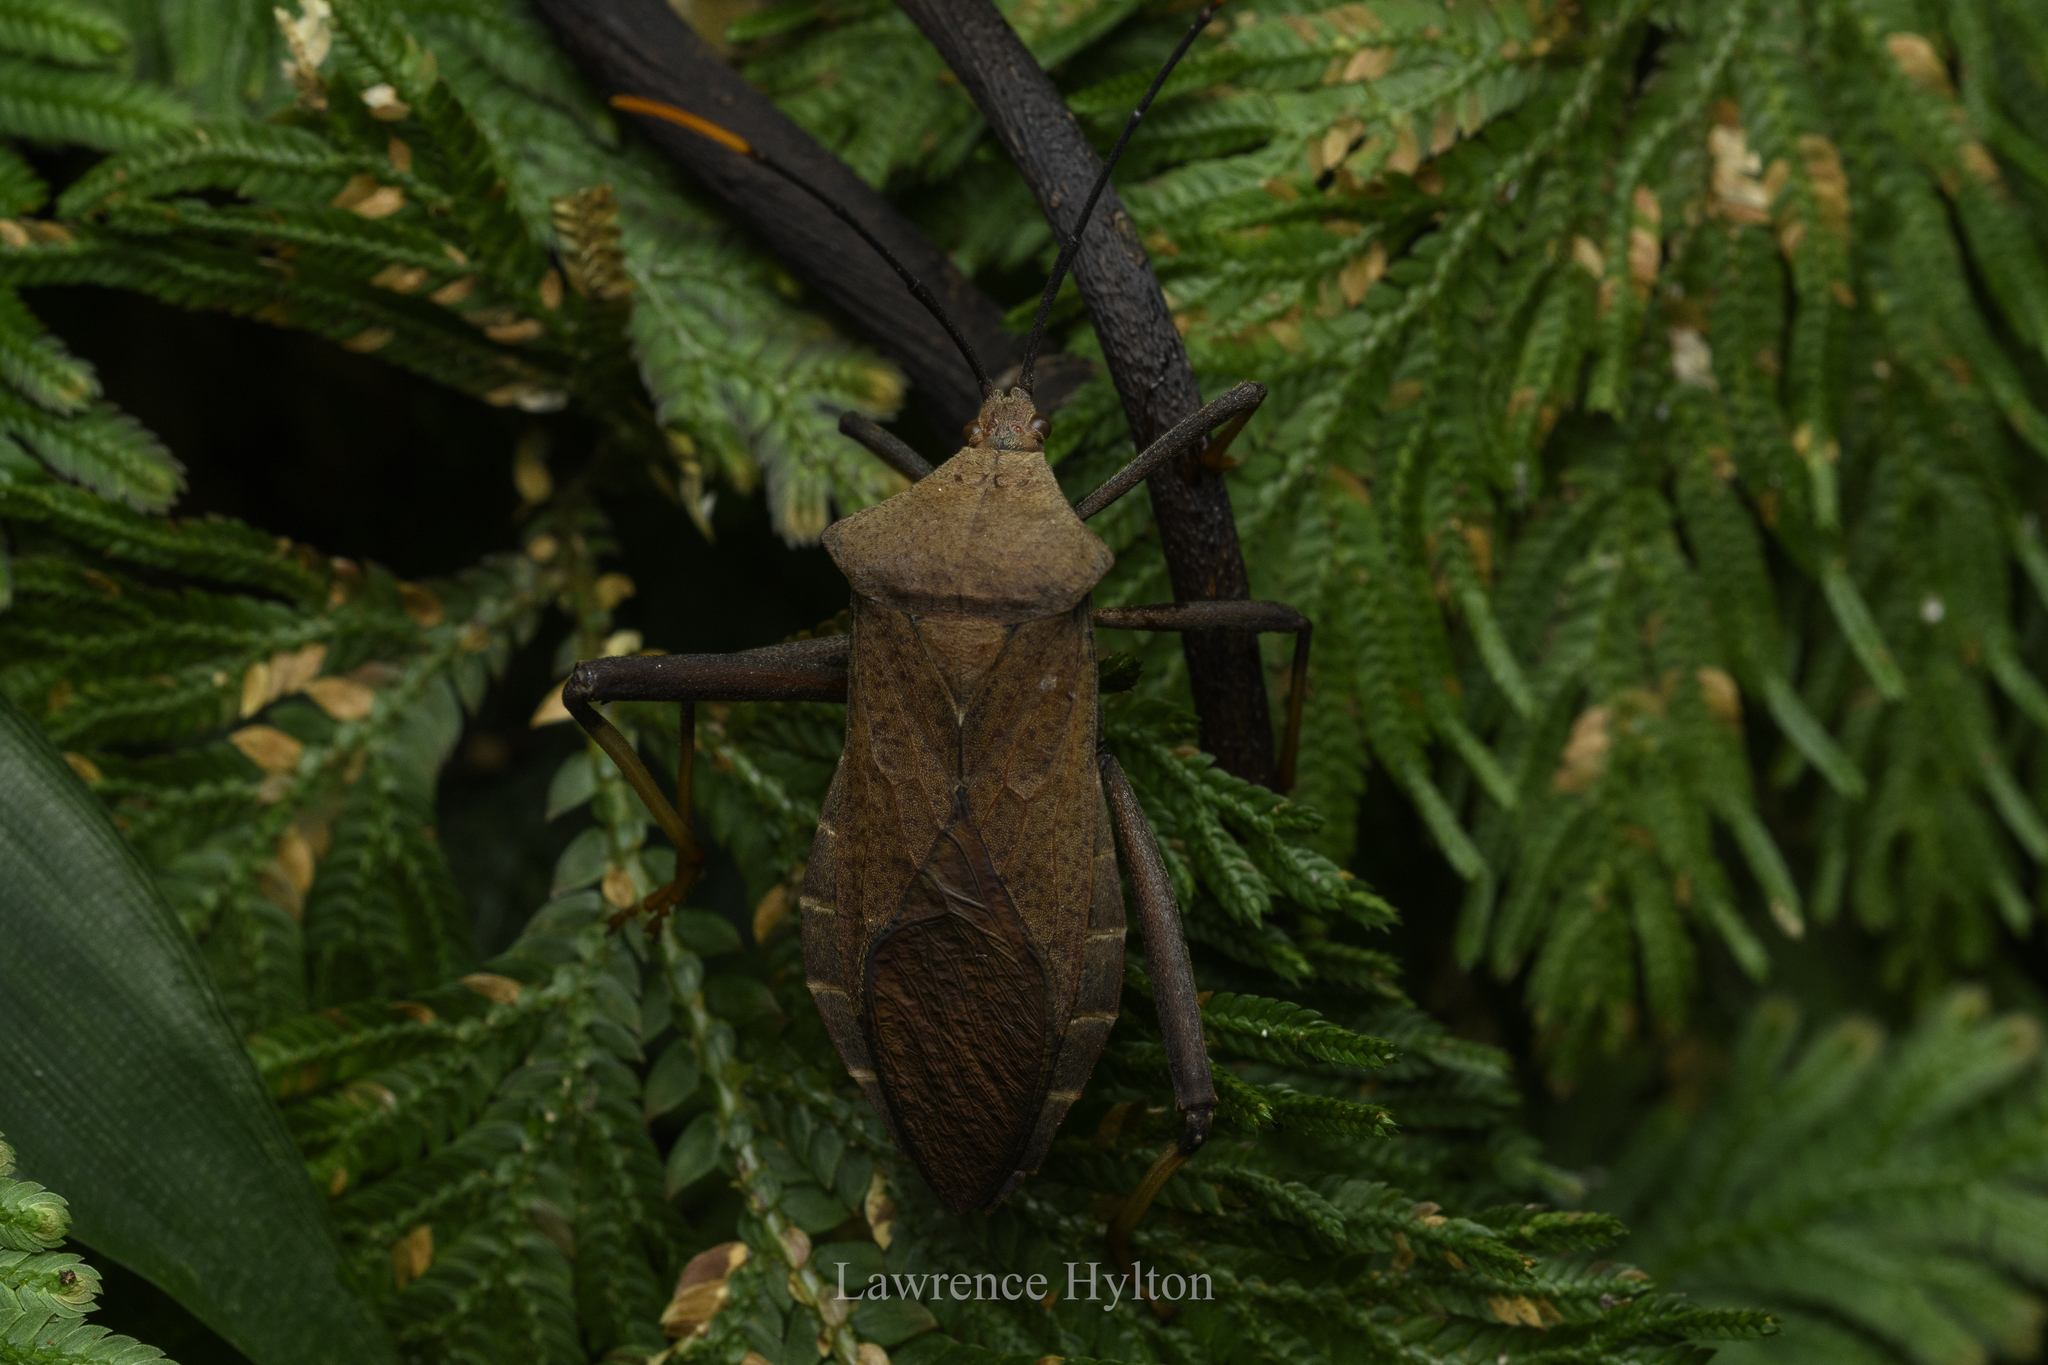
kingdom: Animalia
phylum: Arthropoda
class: Insecta
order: Hemiptera
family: Coreidae
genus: Mictis
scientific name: Mictis serina
